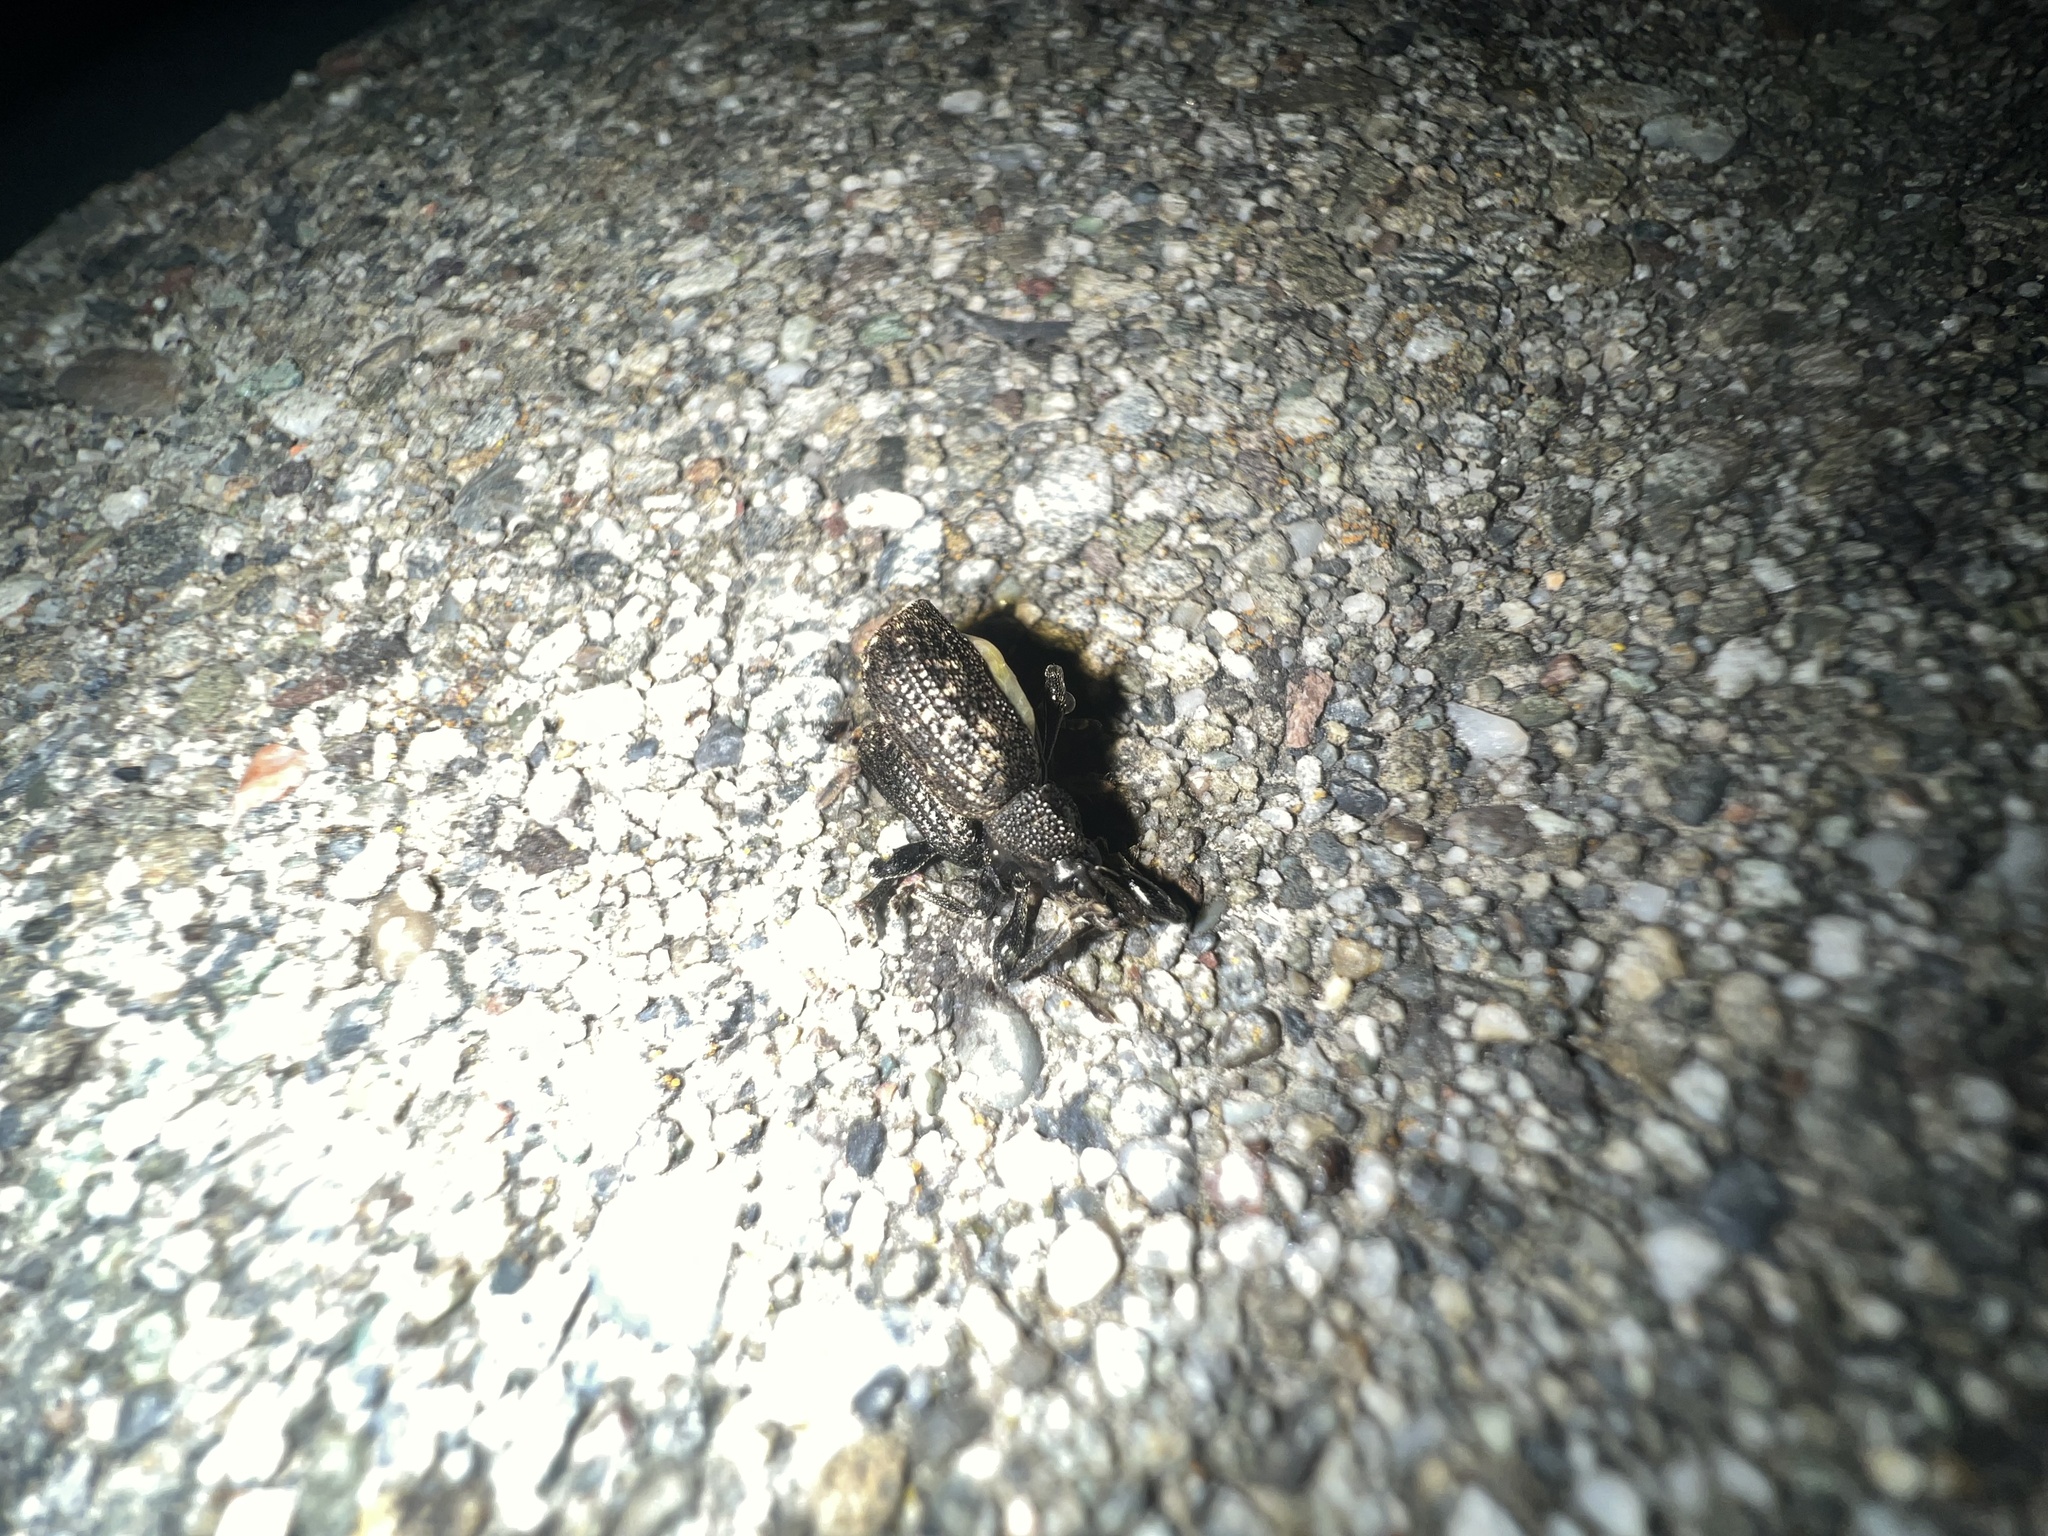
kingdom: Animalia
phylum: Arthropoda
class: Insecta
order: Coleoptera
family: Curculionidae
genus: Otiorhynchus
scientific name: Otiorhynchus sulcatus
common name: Black vine weevil
